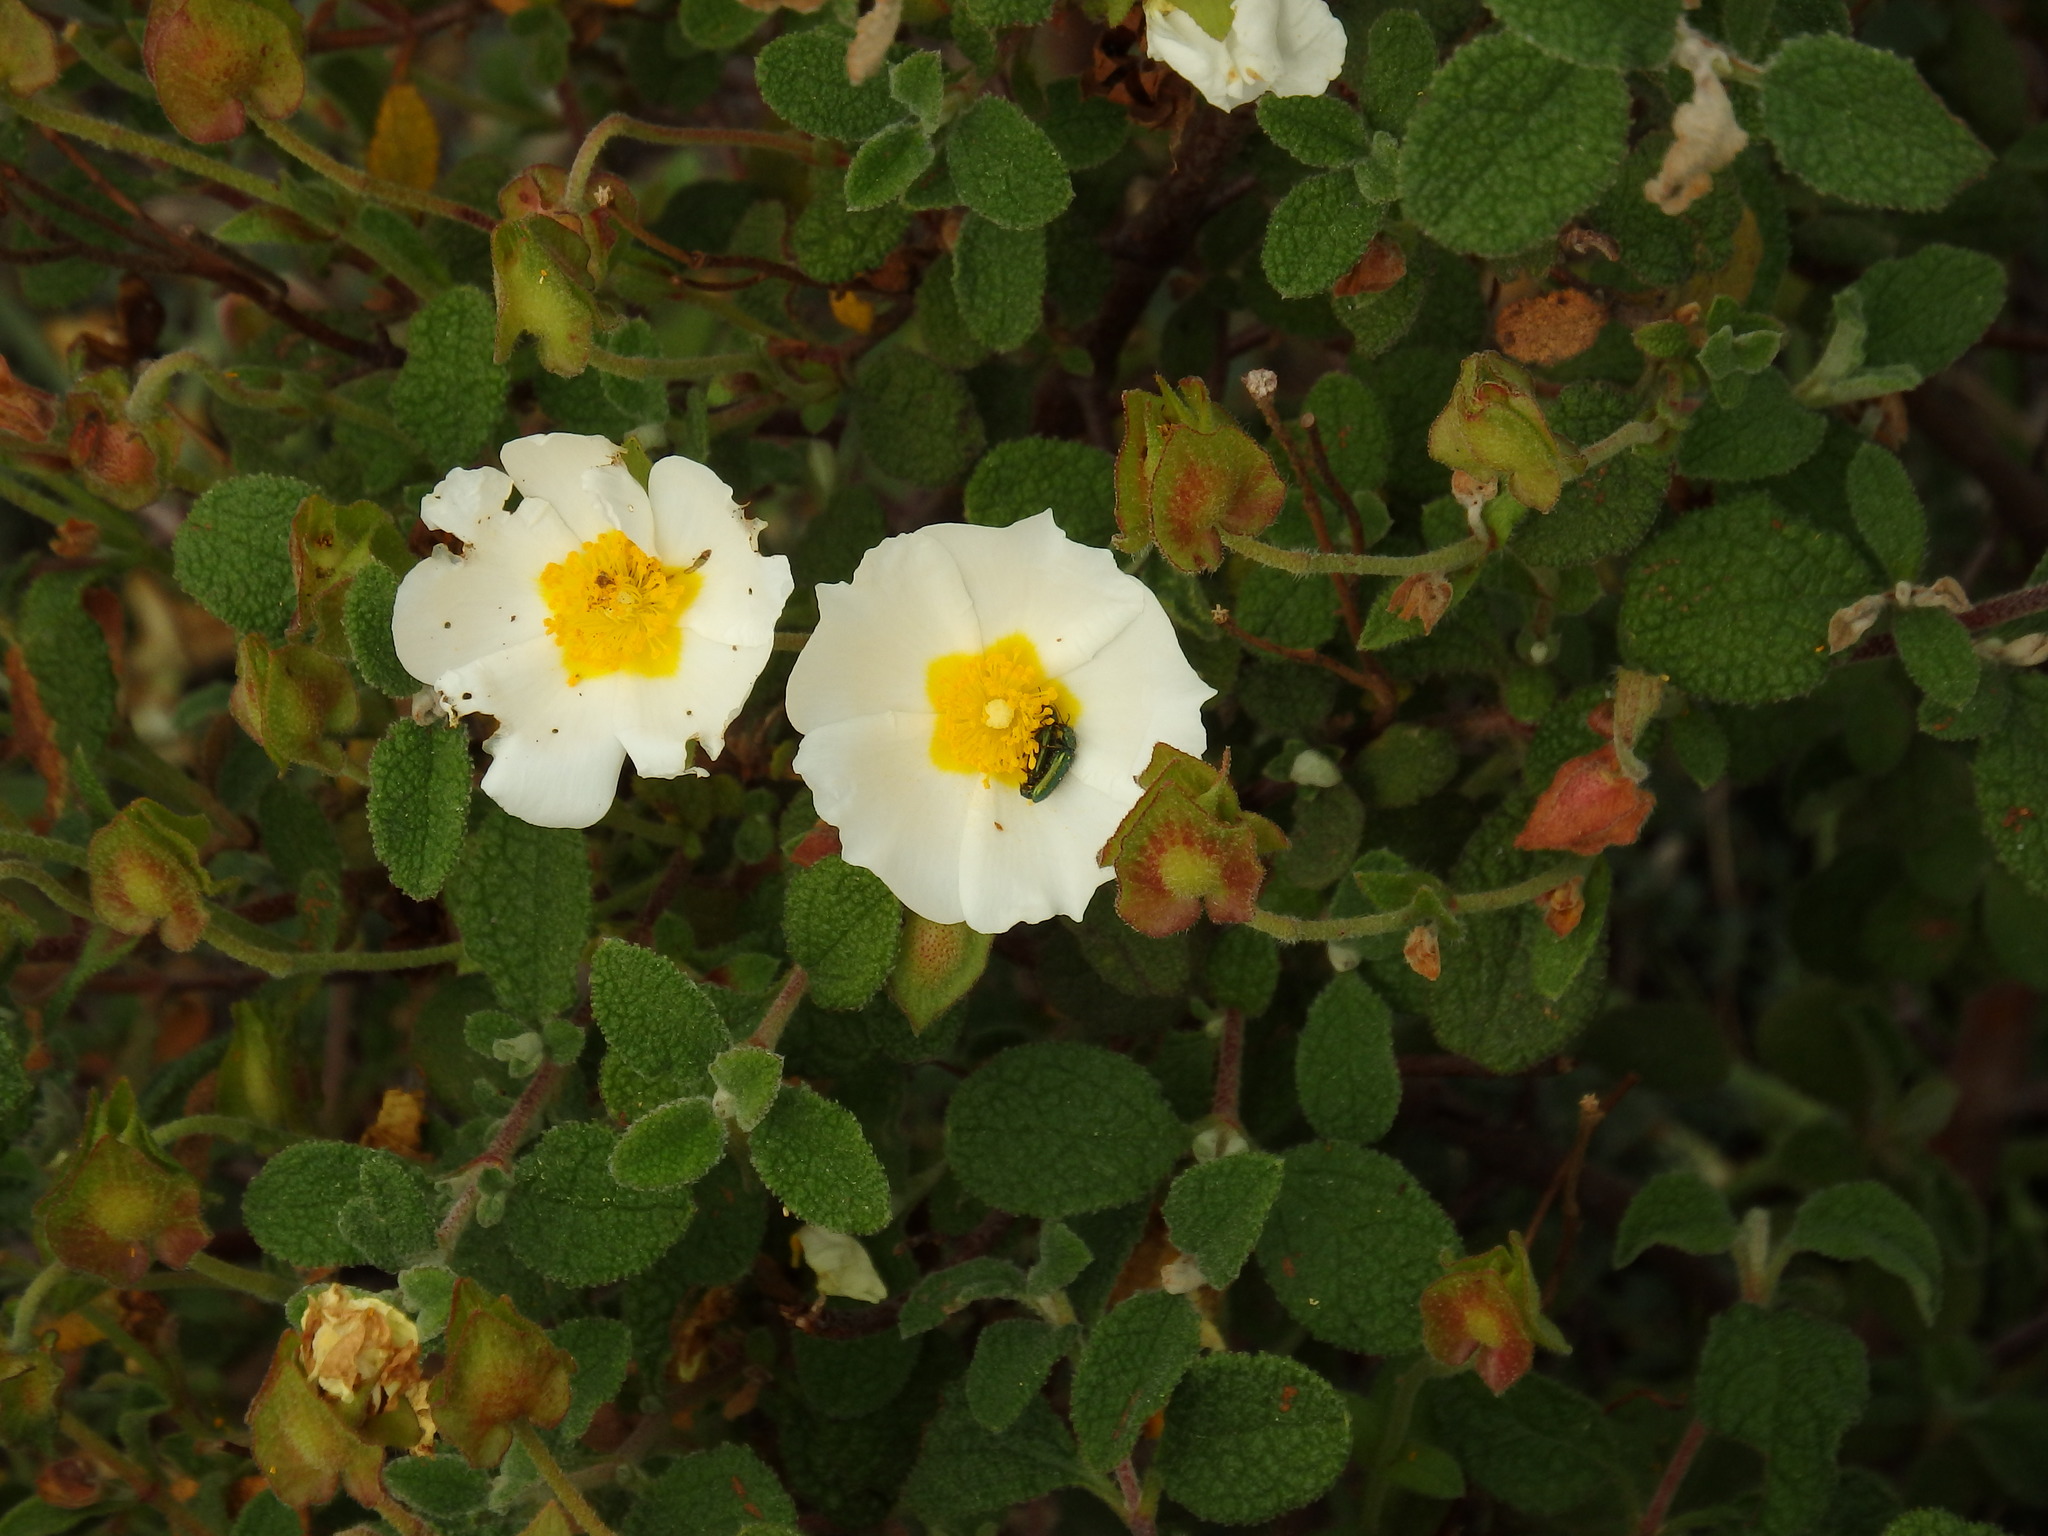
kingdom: Plantae
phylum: Tracheophyta
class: Magnoliopsida
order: Malvales
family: Cistaceae
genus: Cistus
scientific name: Cistus salviifolius
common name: Salvia cistus
